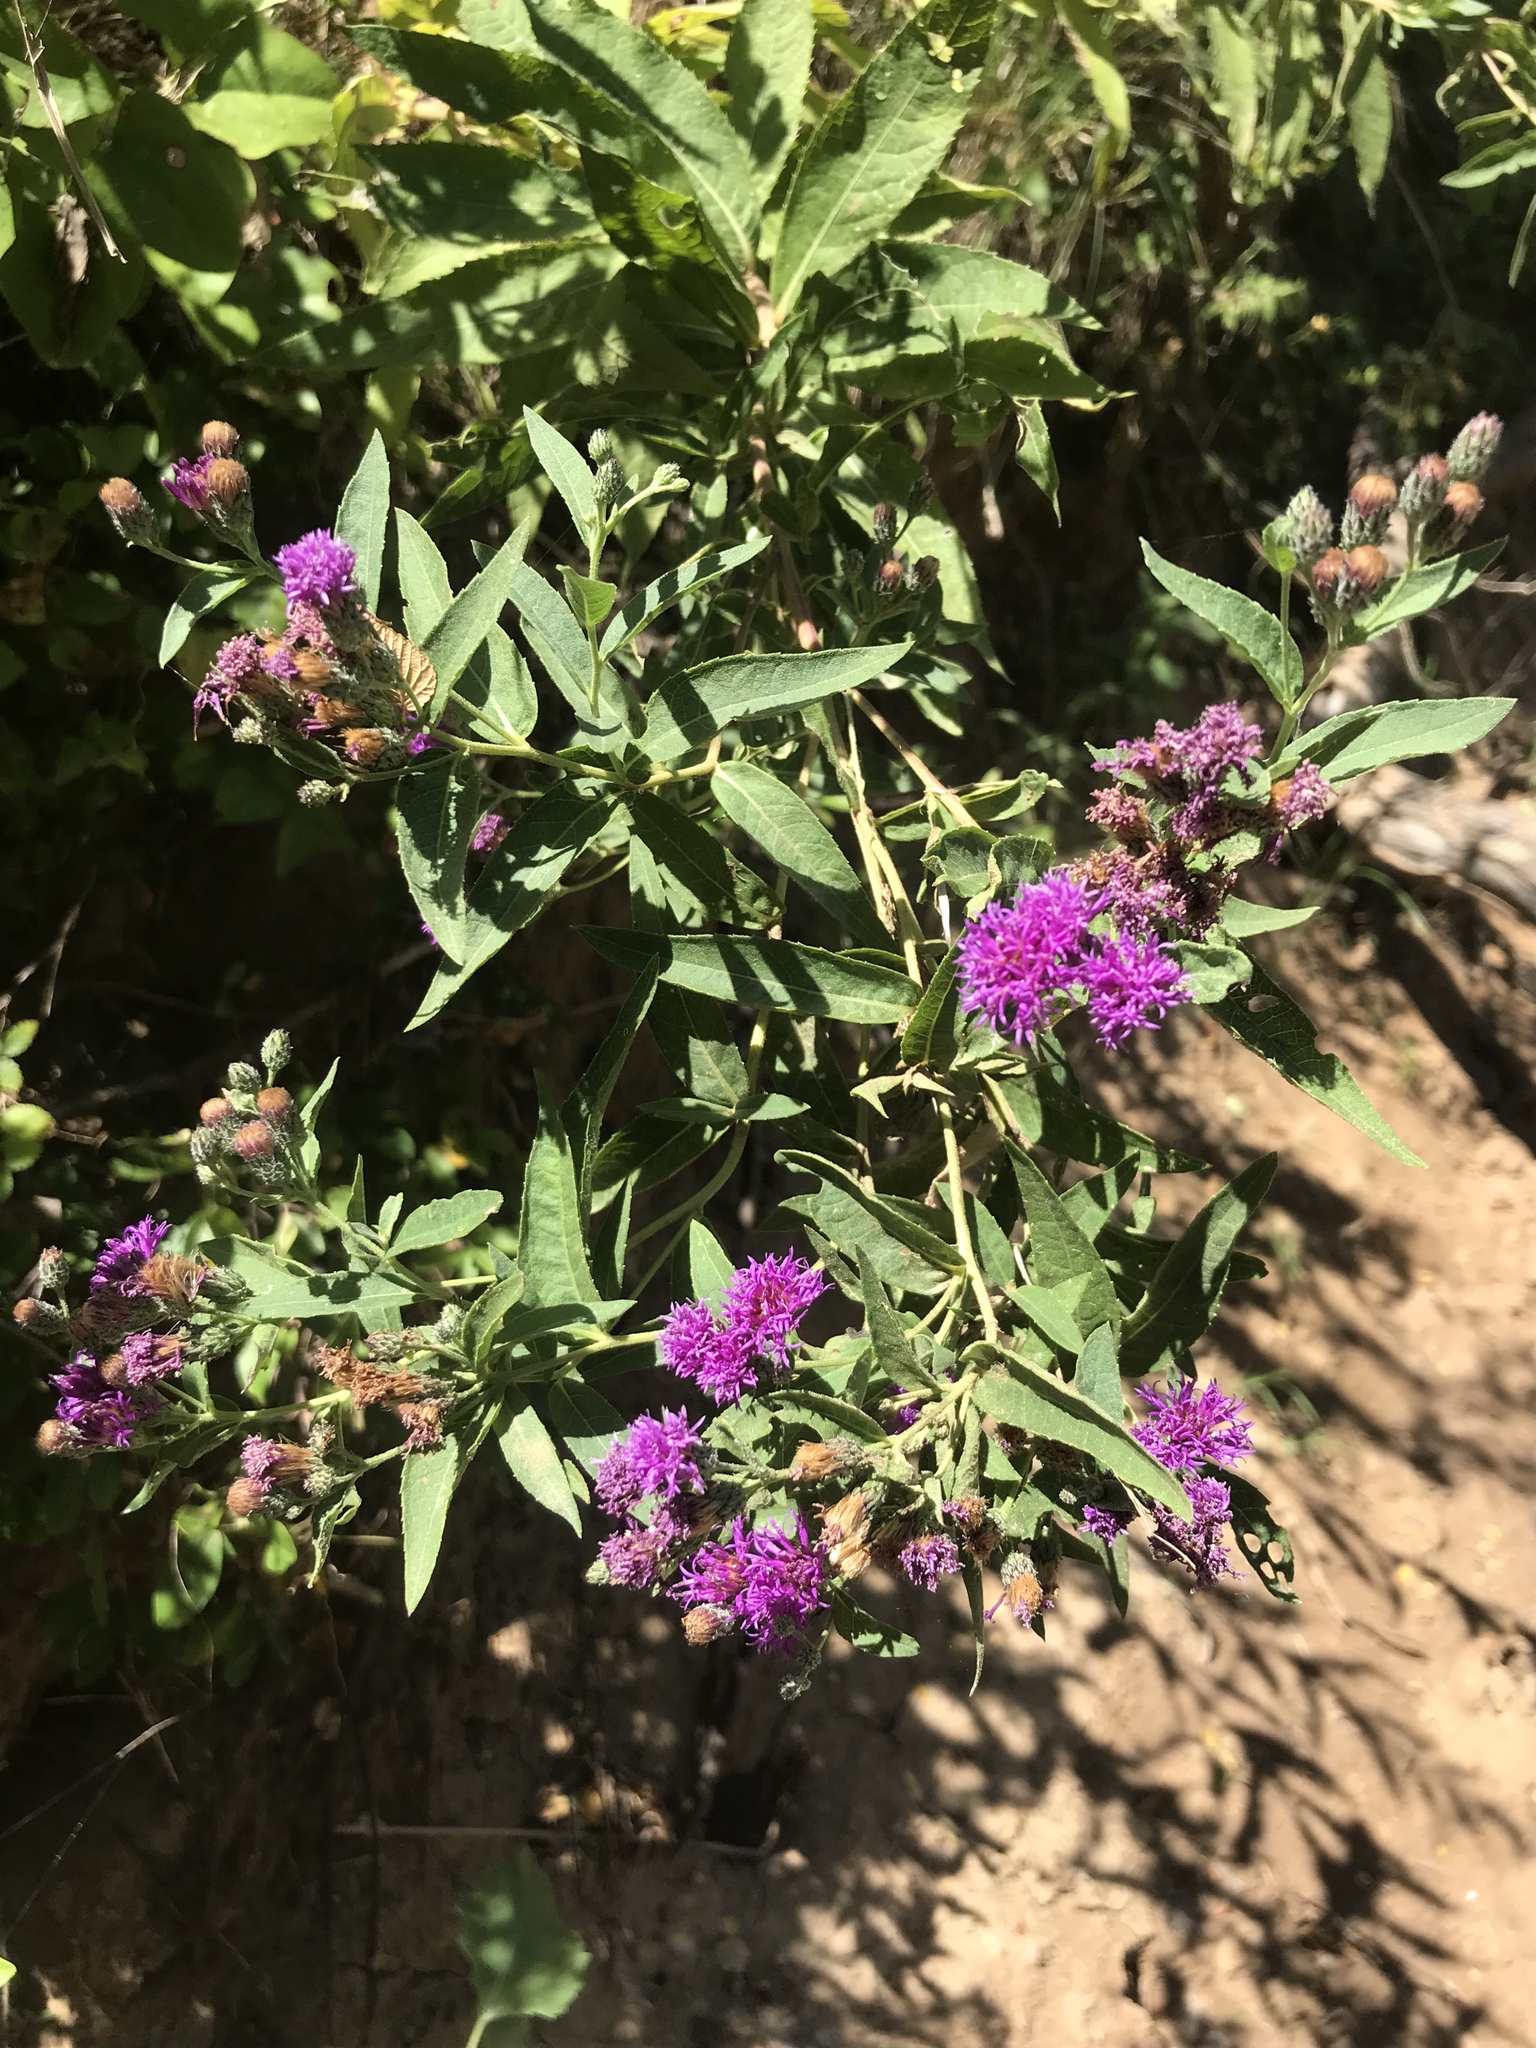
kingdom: Plantae
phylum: Tracheophyta
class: Magnoliopsida
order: Asterales
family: Asteraceae
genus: Vernonia
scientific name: Vernonia baldwinii
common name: Western ironweed
